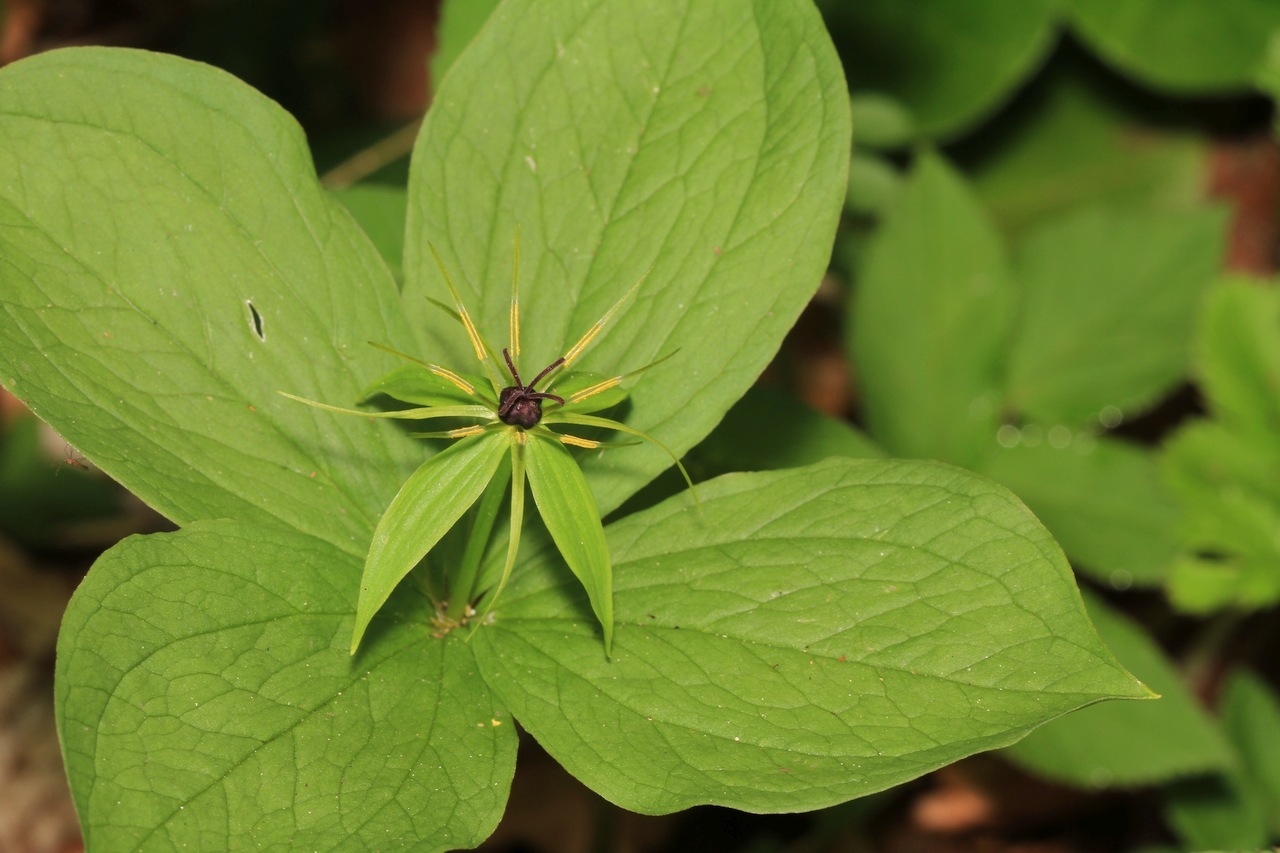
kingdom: Plantae
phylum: Tracheophyta
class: Liliopsida
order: Liliales
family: Melanthiaceae
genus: Paris
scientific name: Paris quadrifolia
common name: Herb-paris
